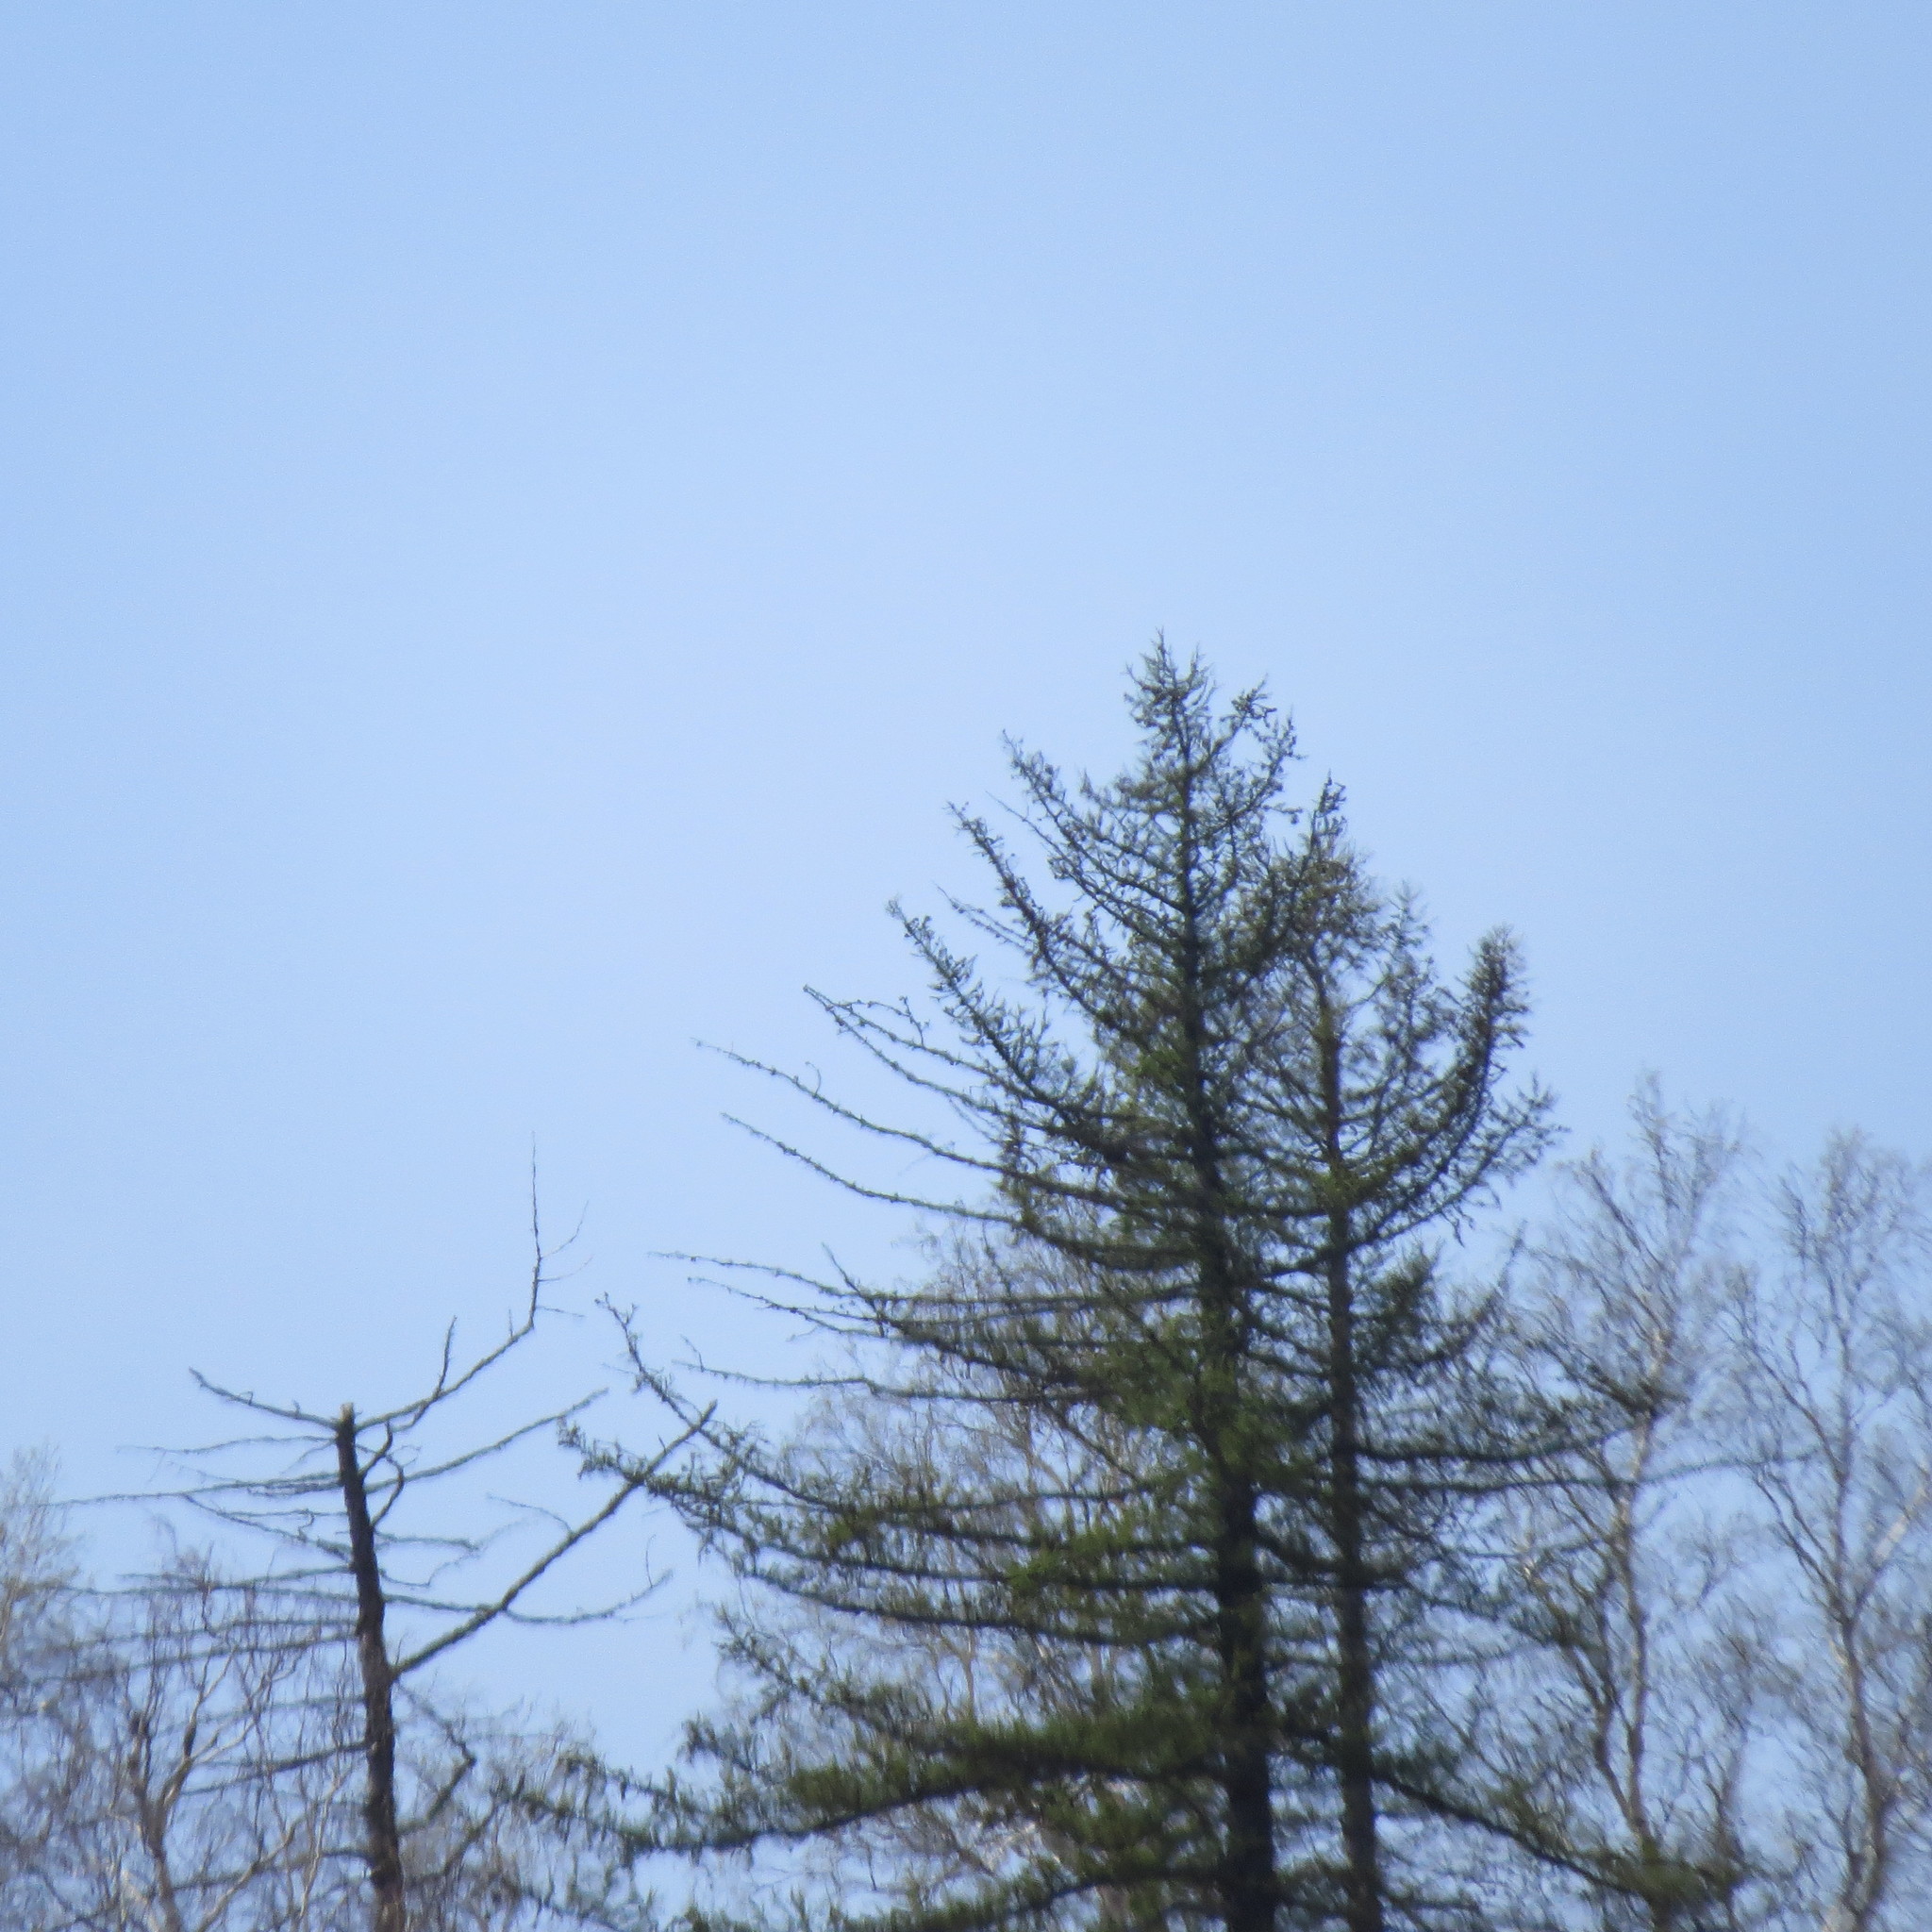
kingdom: Plantae
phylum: Tracheophyta
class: Pinopsida
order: Pinales
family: Pinaceae
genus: Larix
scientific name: Larix sibirica
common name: Siberian larch
